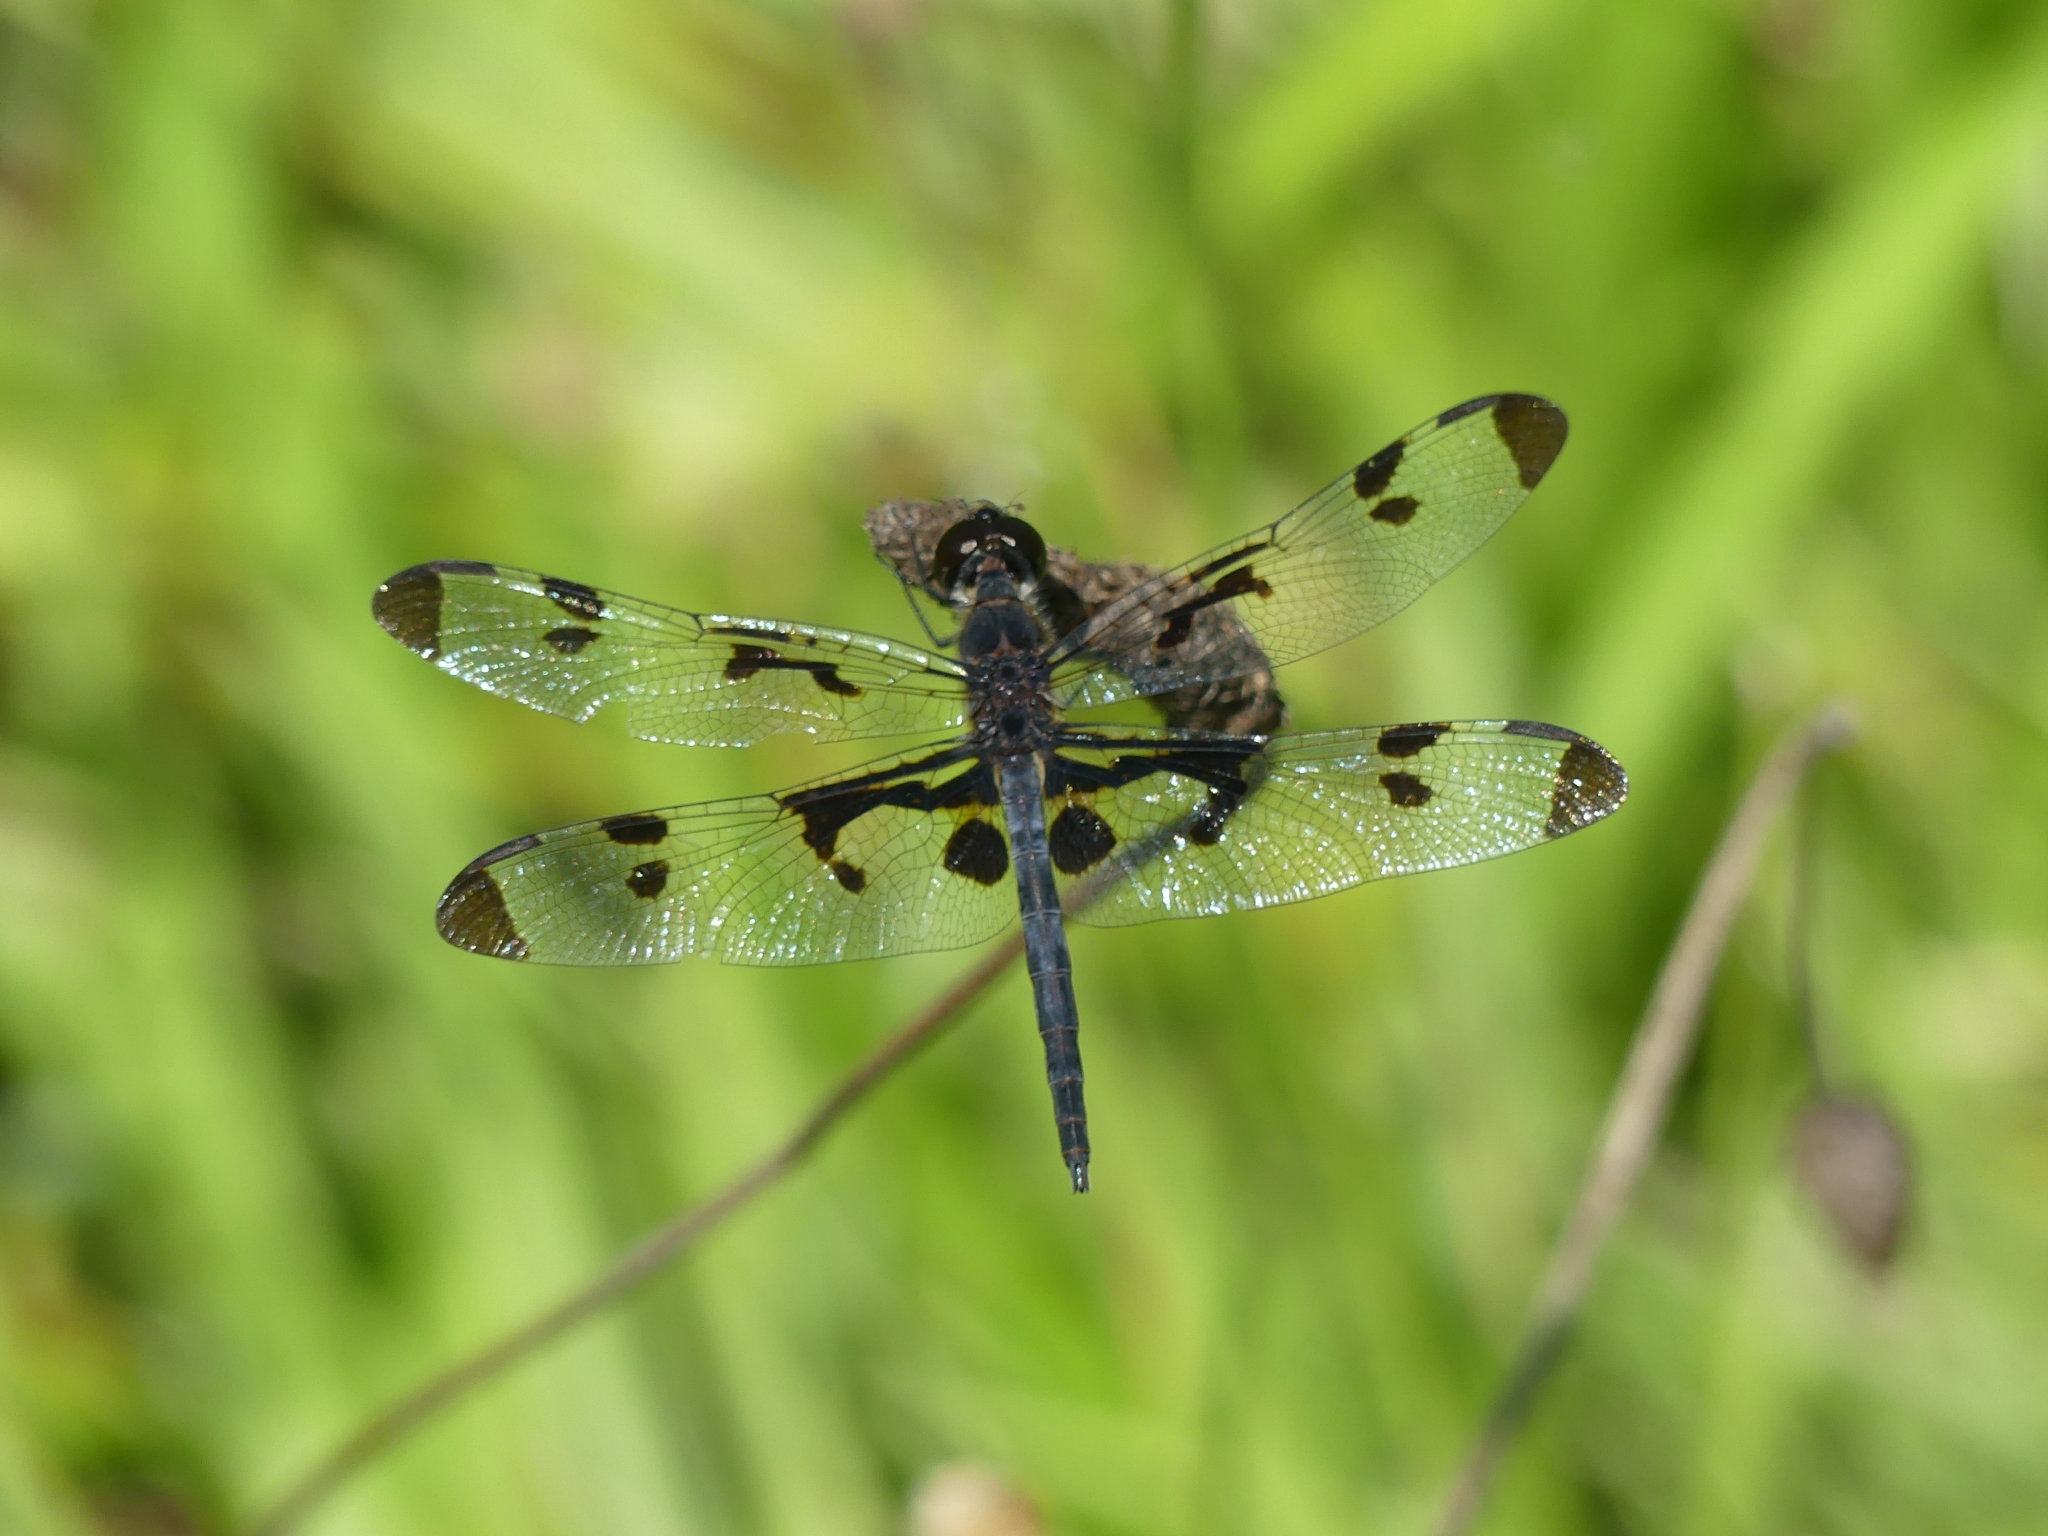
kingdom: Animalia
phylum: Arthropoda
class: Insecta
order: Odonata
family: Libellulidae
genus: Celithemis
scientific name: Celithemis fasciata
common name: Banded pennant
